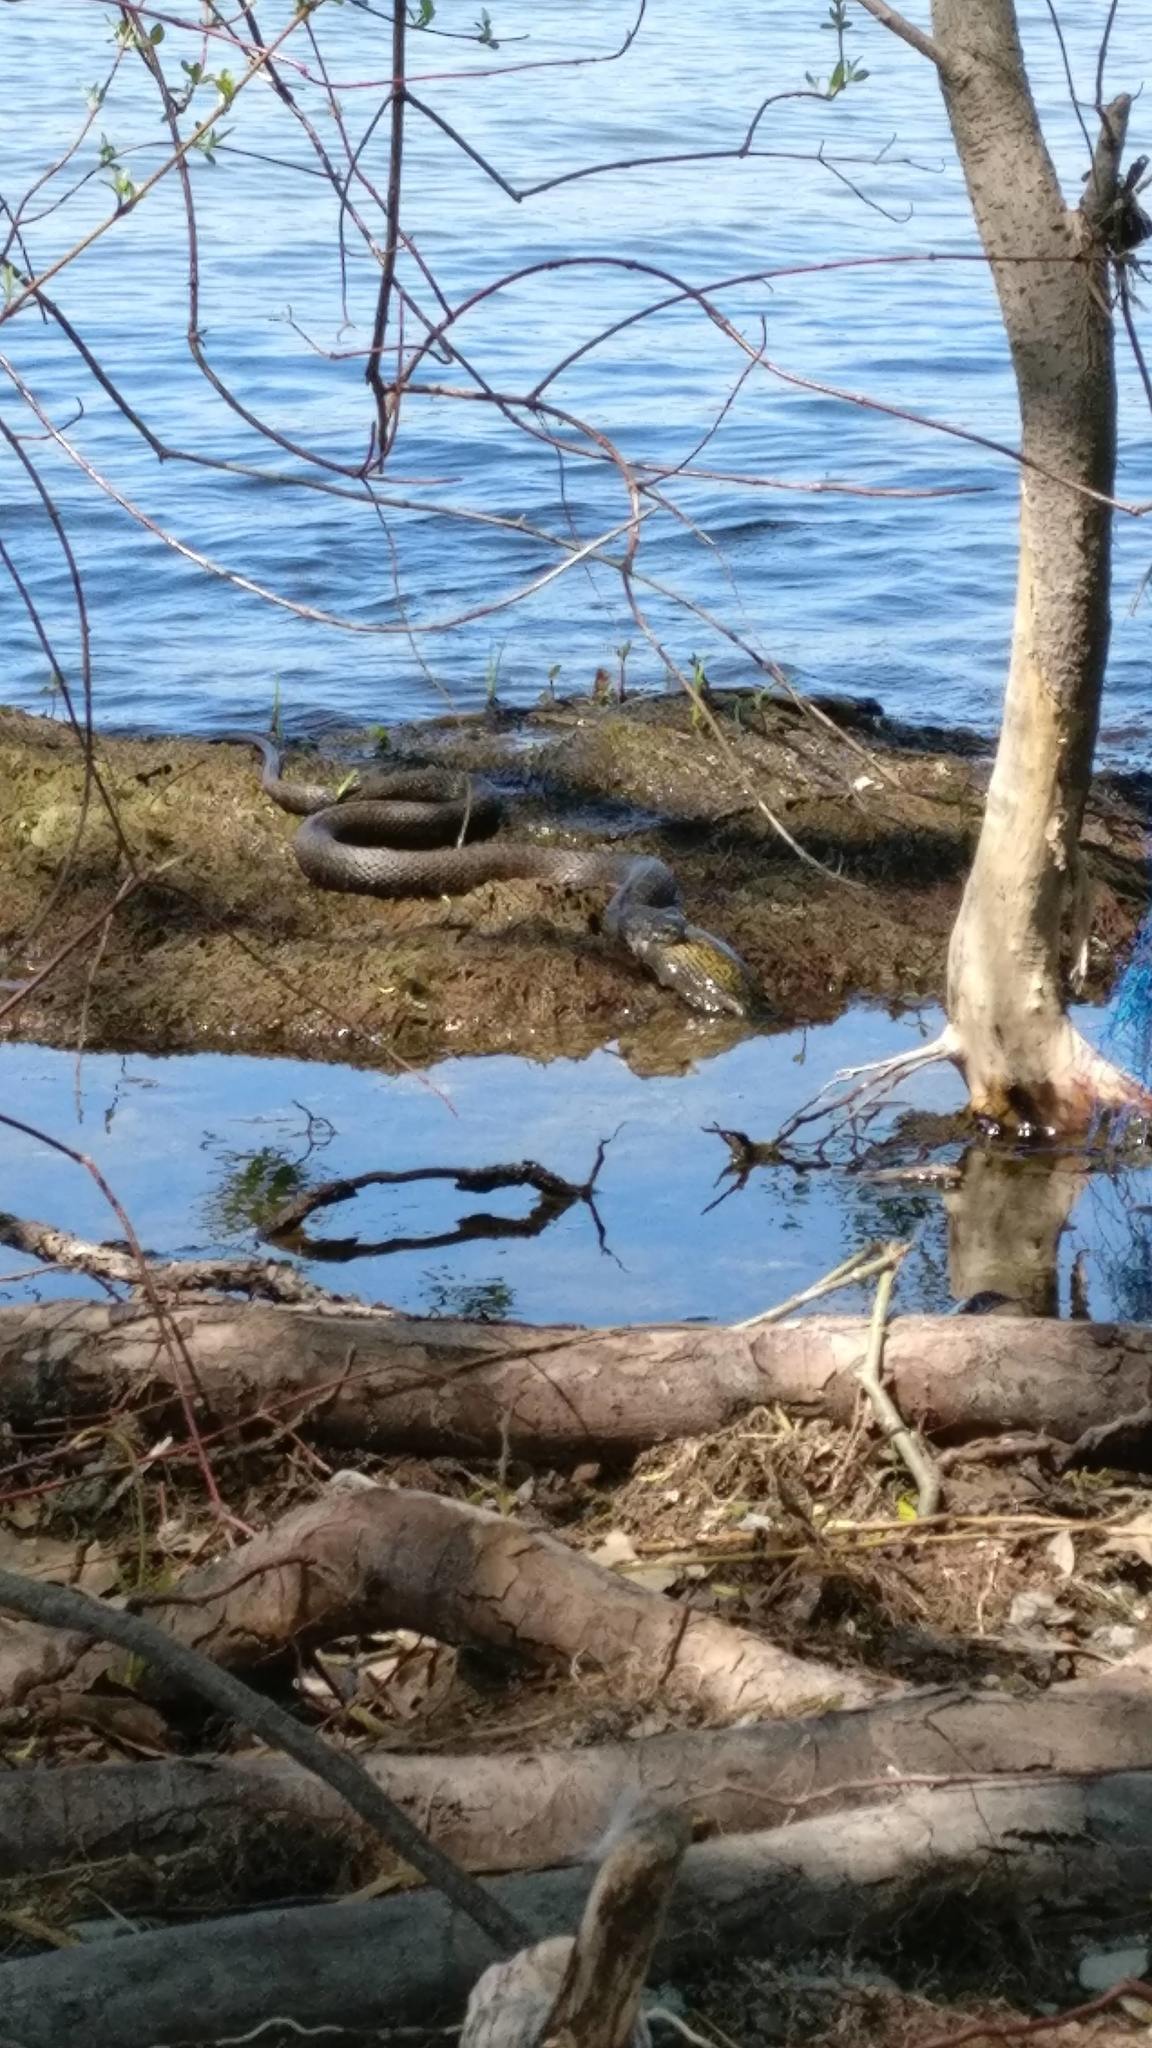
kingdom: Animalia
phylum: Chordata
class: Squamata
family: Colubridae
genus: Nerodia
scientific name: Nerodia sipedon
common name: Northern water snake
